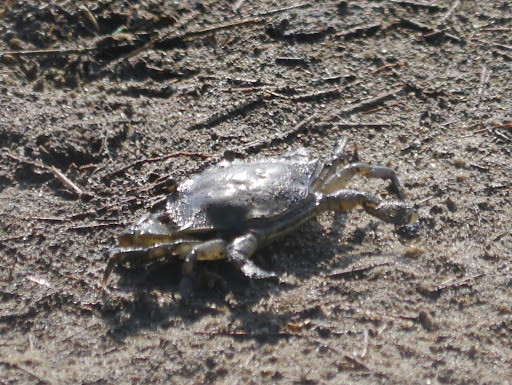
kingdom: Animalia
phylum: Arthropoda
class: Malacostraca
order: Decapoda
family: Portunidae
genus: Callinectes
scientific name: Callinectes sapidus
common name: Blue crab
